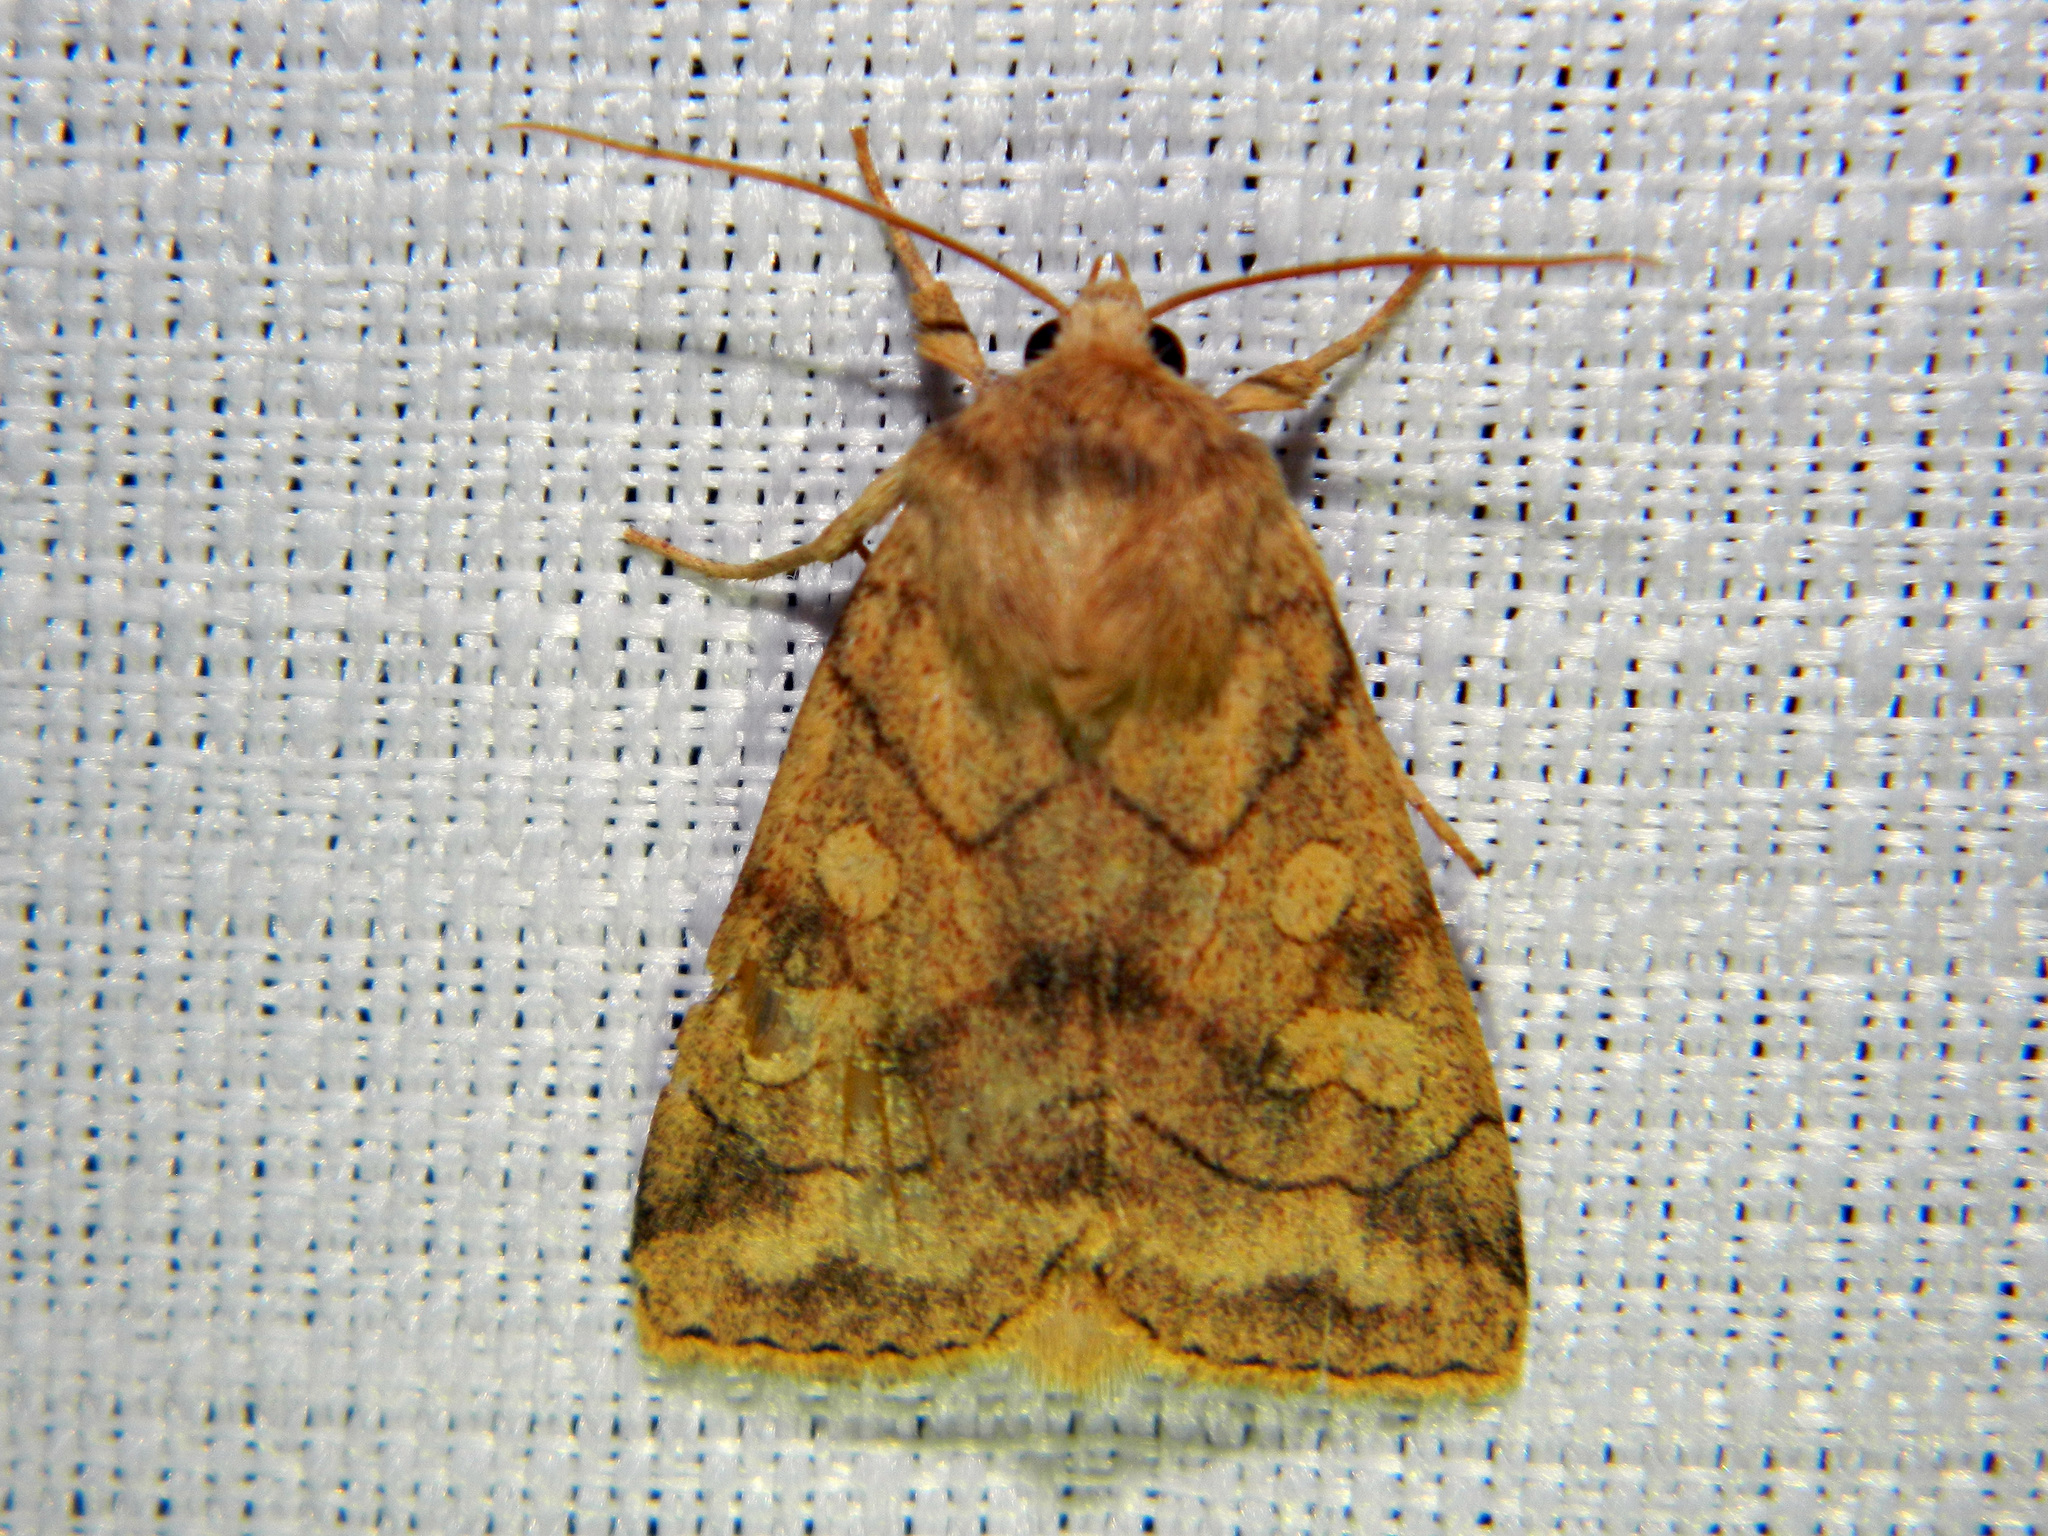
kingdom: Animalia
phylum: Arthropoda
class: Insecta
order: Lepidoptera
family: Noctuidae
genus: Enargia
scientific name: Enargia decolor
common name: Aspen twoleaf tier moth
